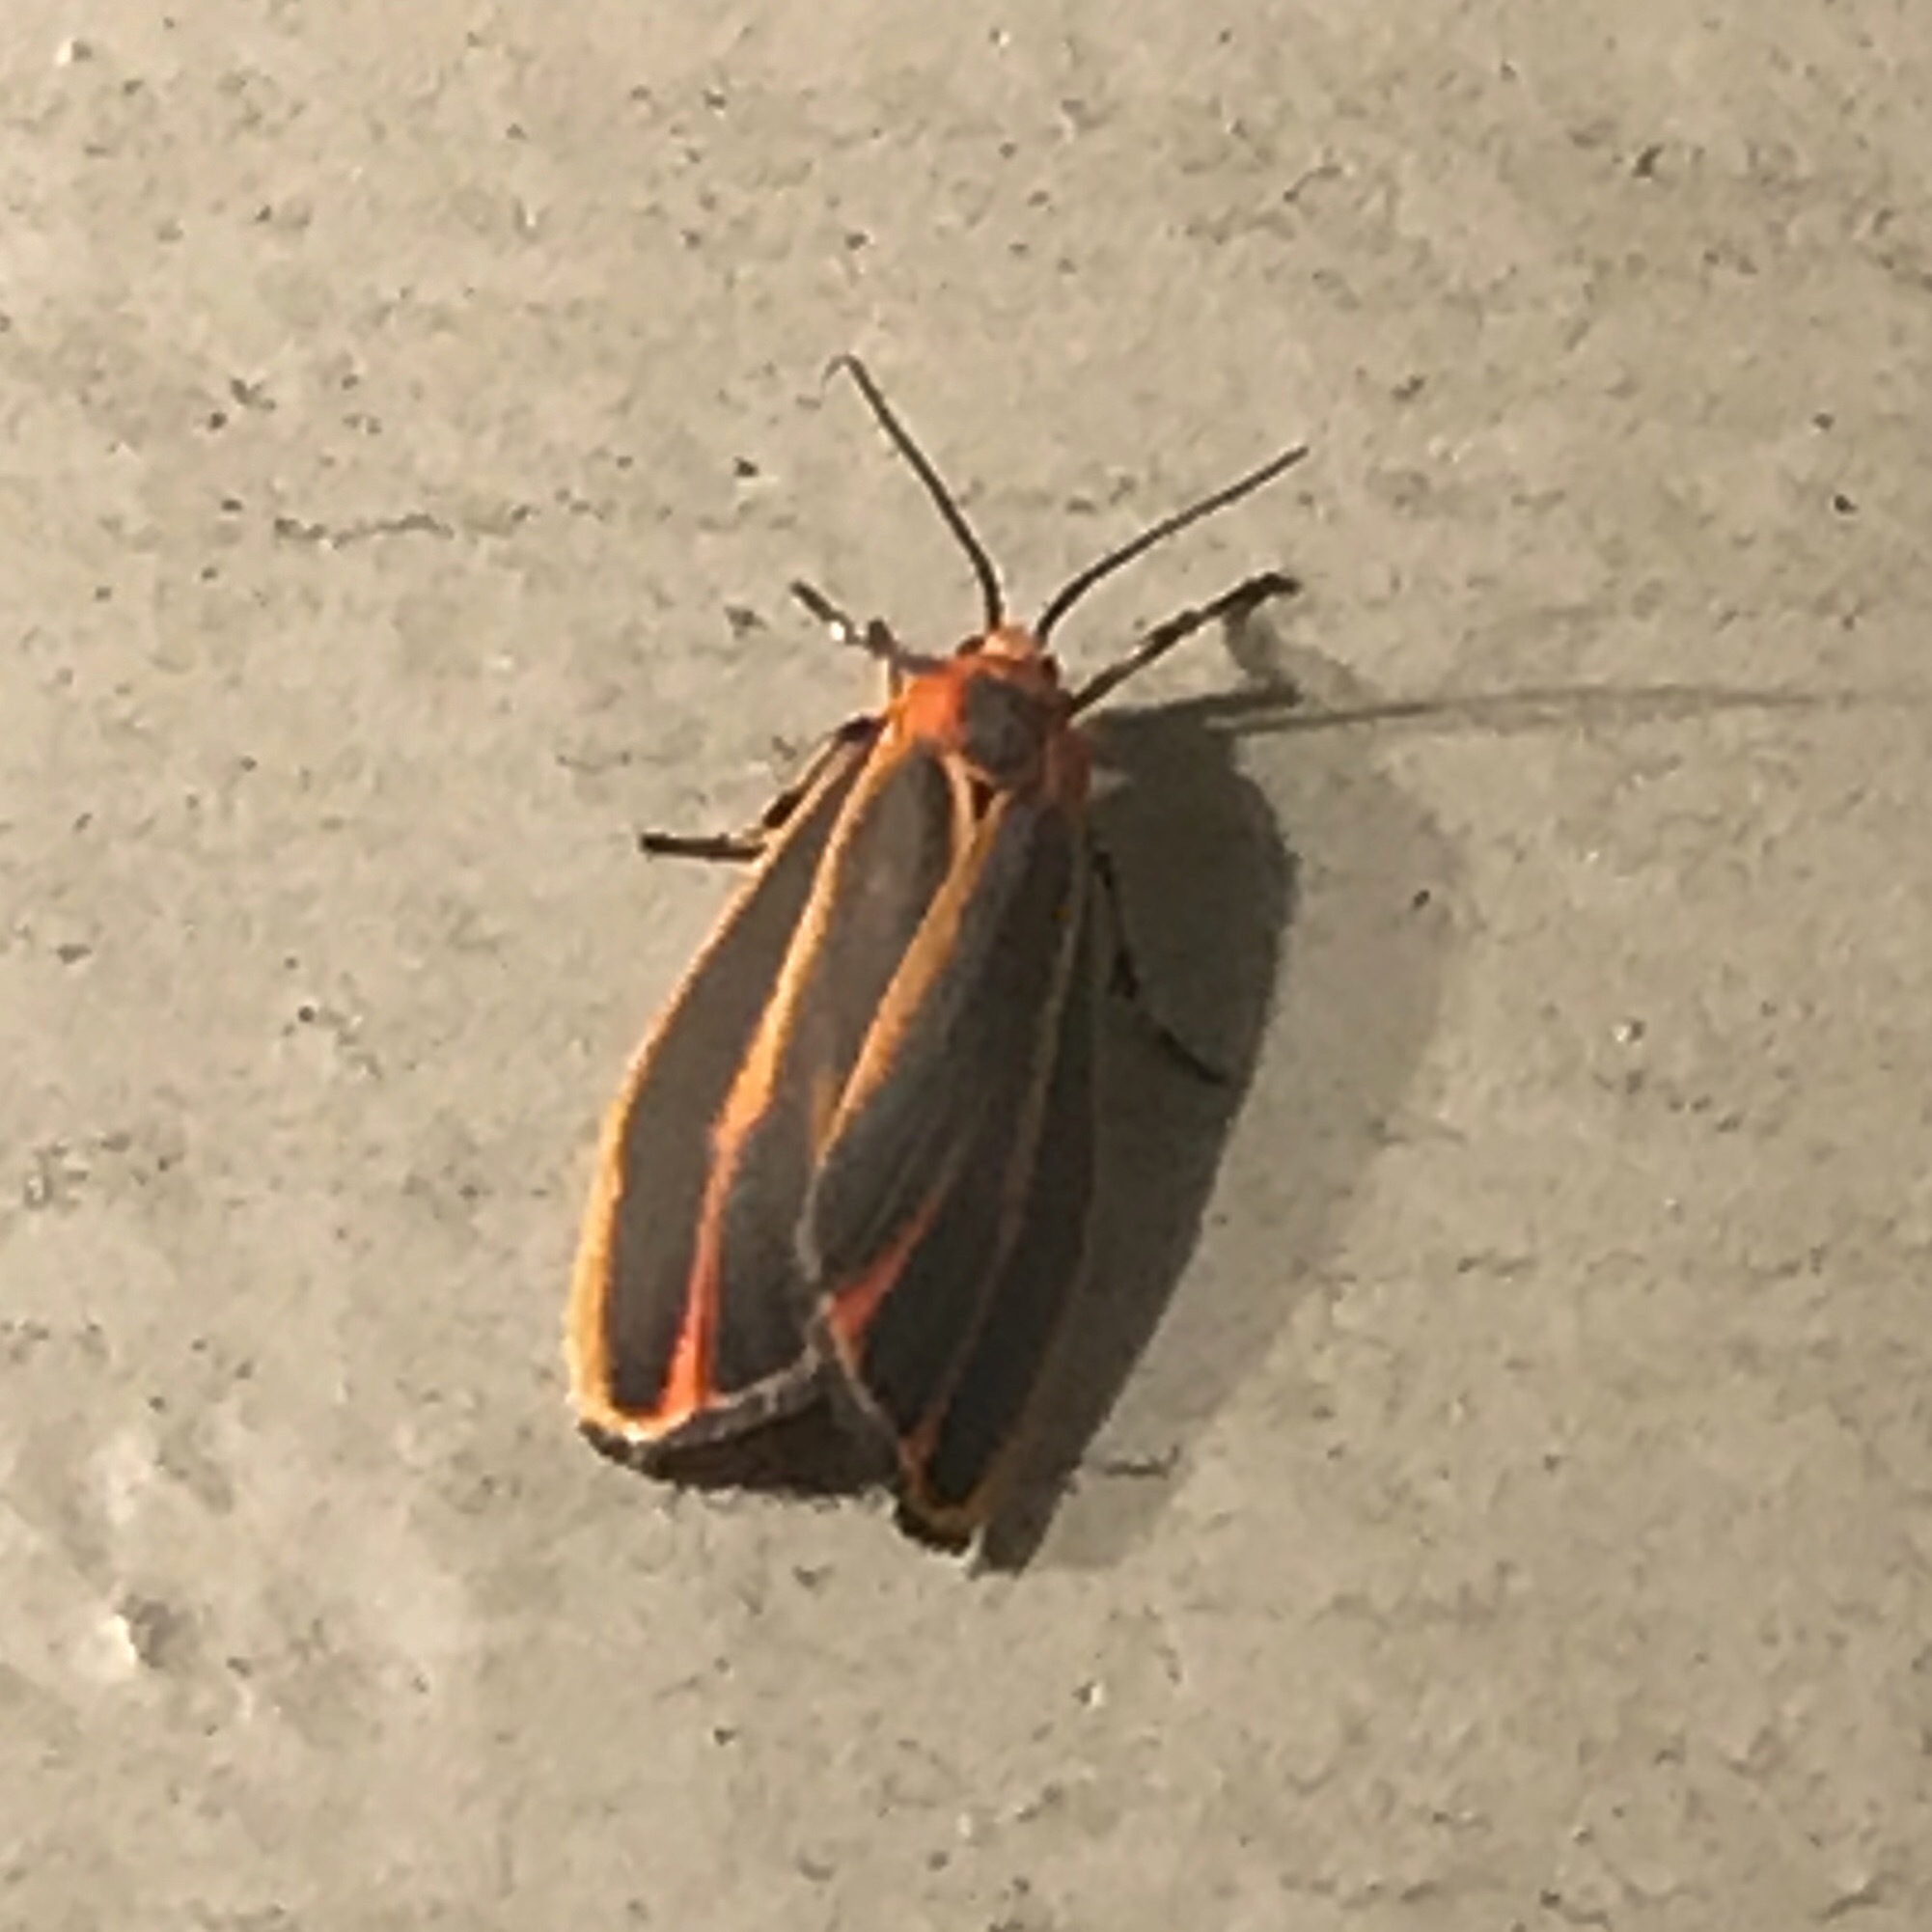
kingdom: Animalia
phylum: Arthropoda
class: Insecta
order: Lepidoptera
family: Erebidae
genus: Hypoprepia
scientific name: Hypoprepia fucosa
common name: Painted lichen moth
